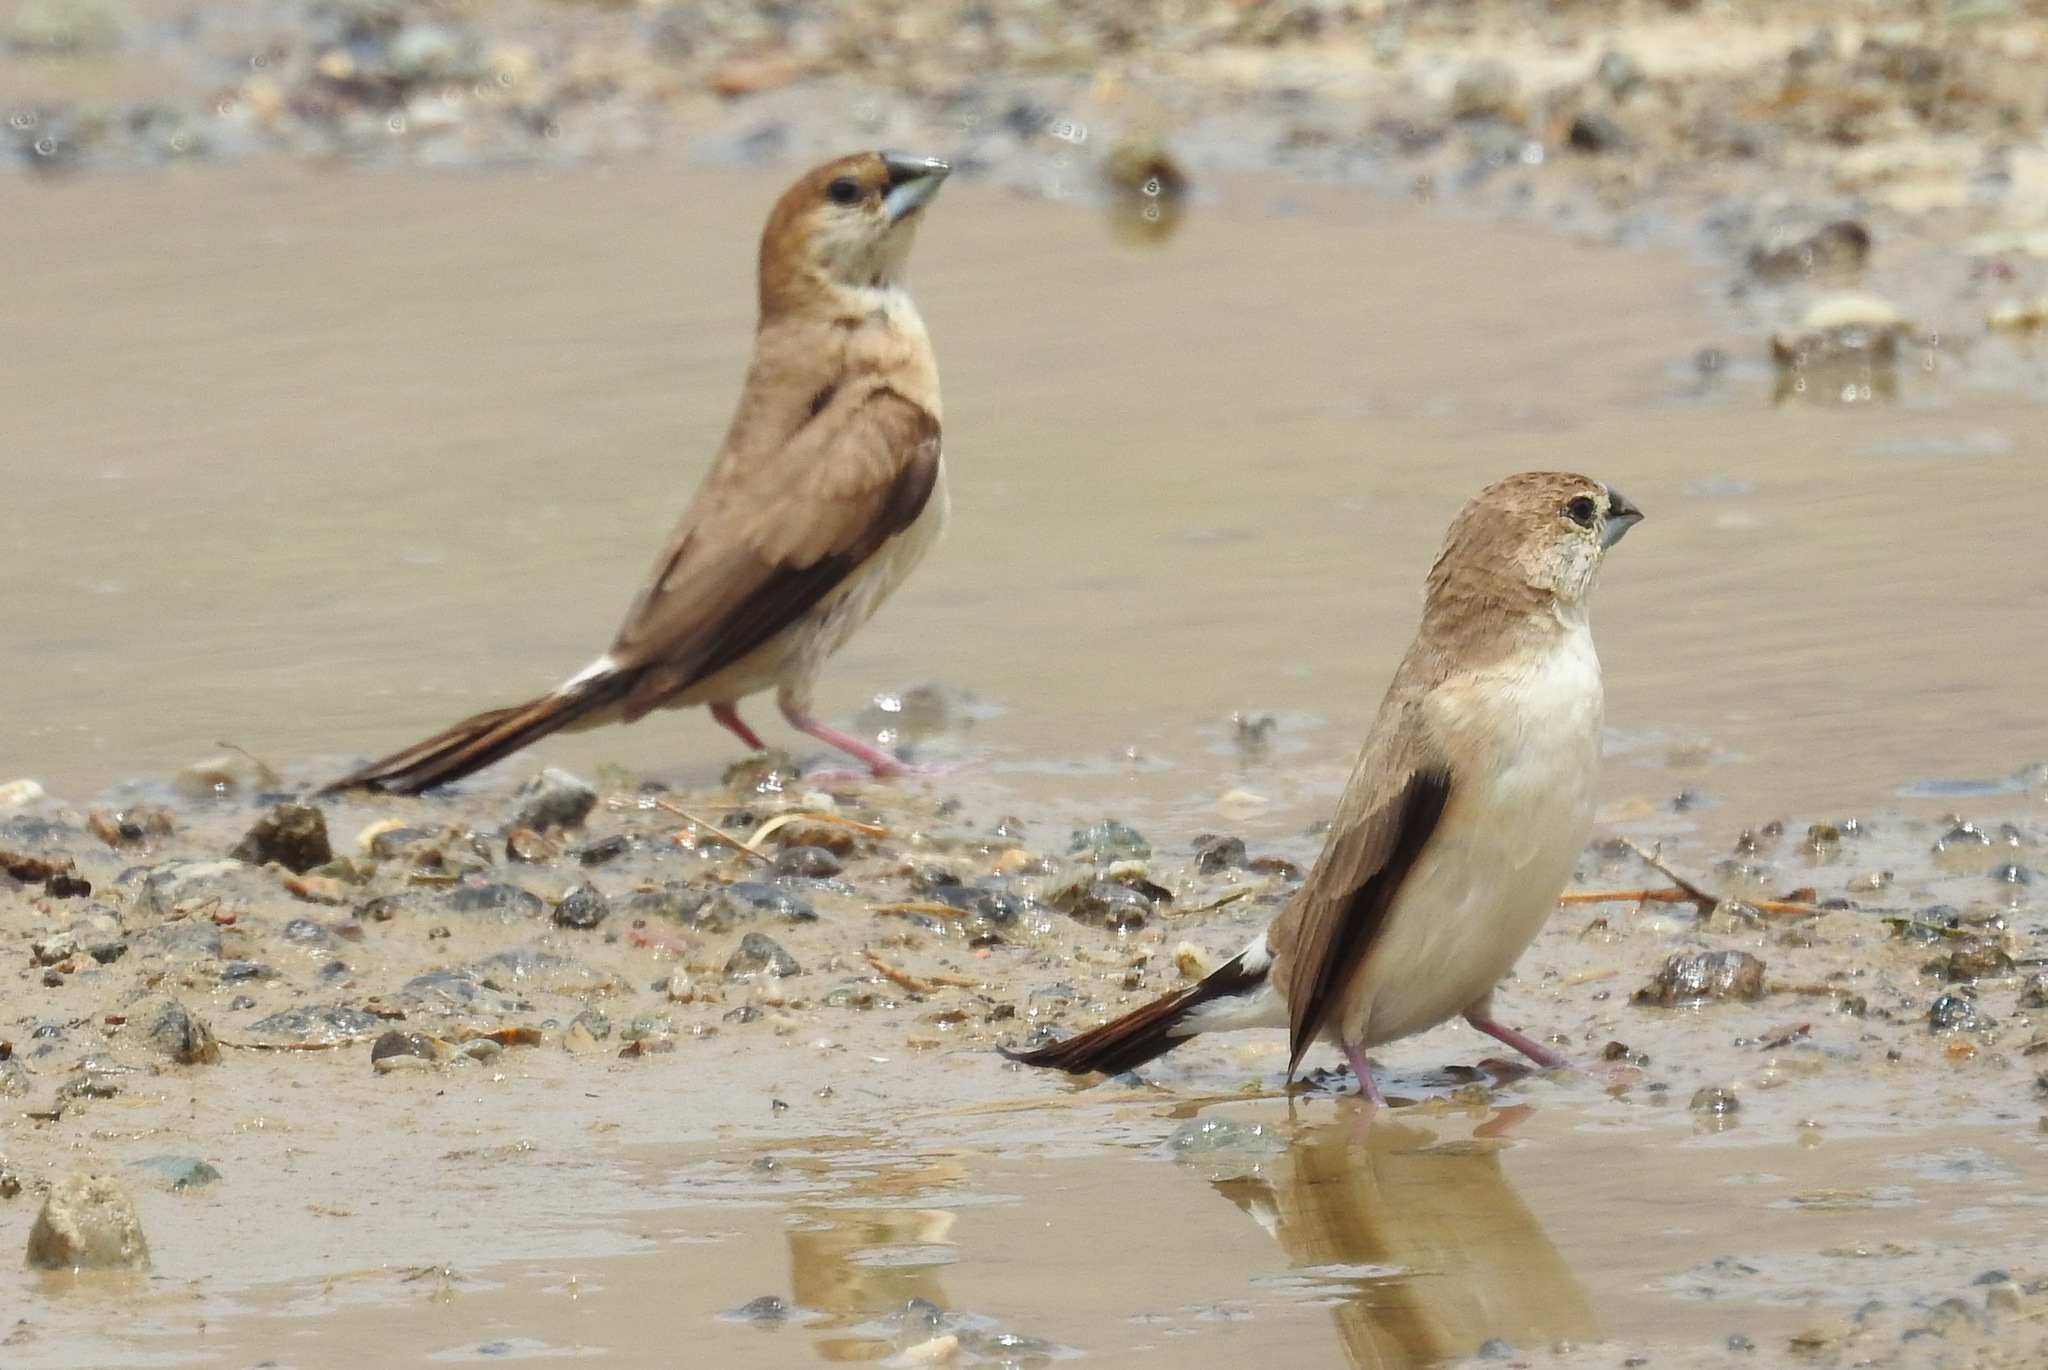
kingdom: Animalia
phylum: Chordata
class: Aves
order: Passeriformes
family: Estrildidae
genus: Euodice
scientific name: Euodice malabarica
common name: Indian silverbill
